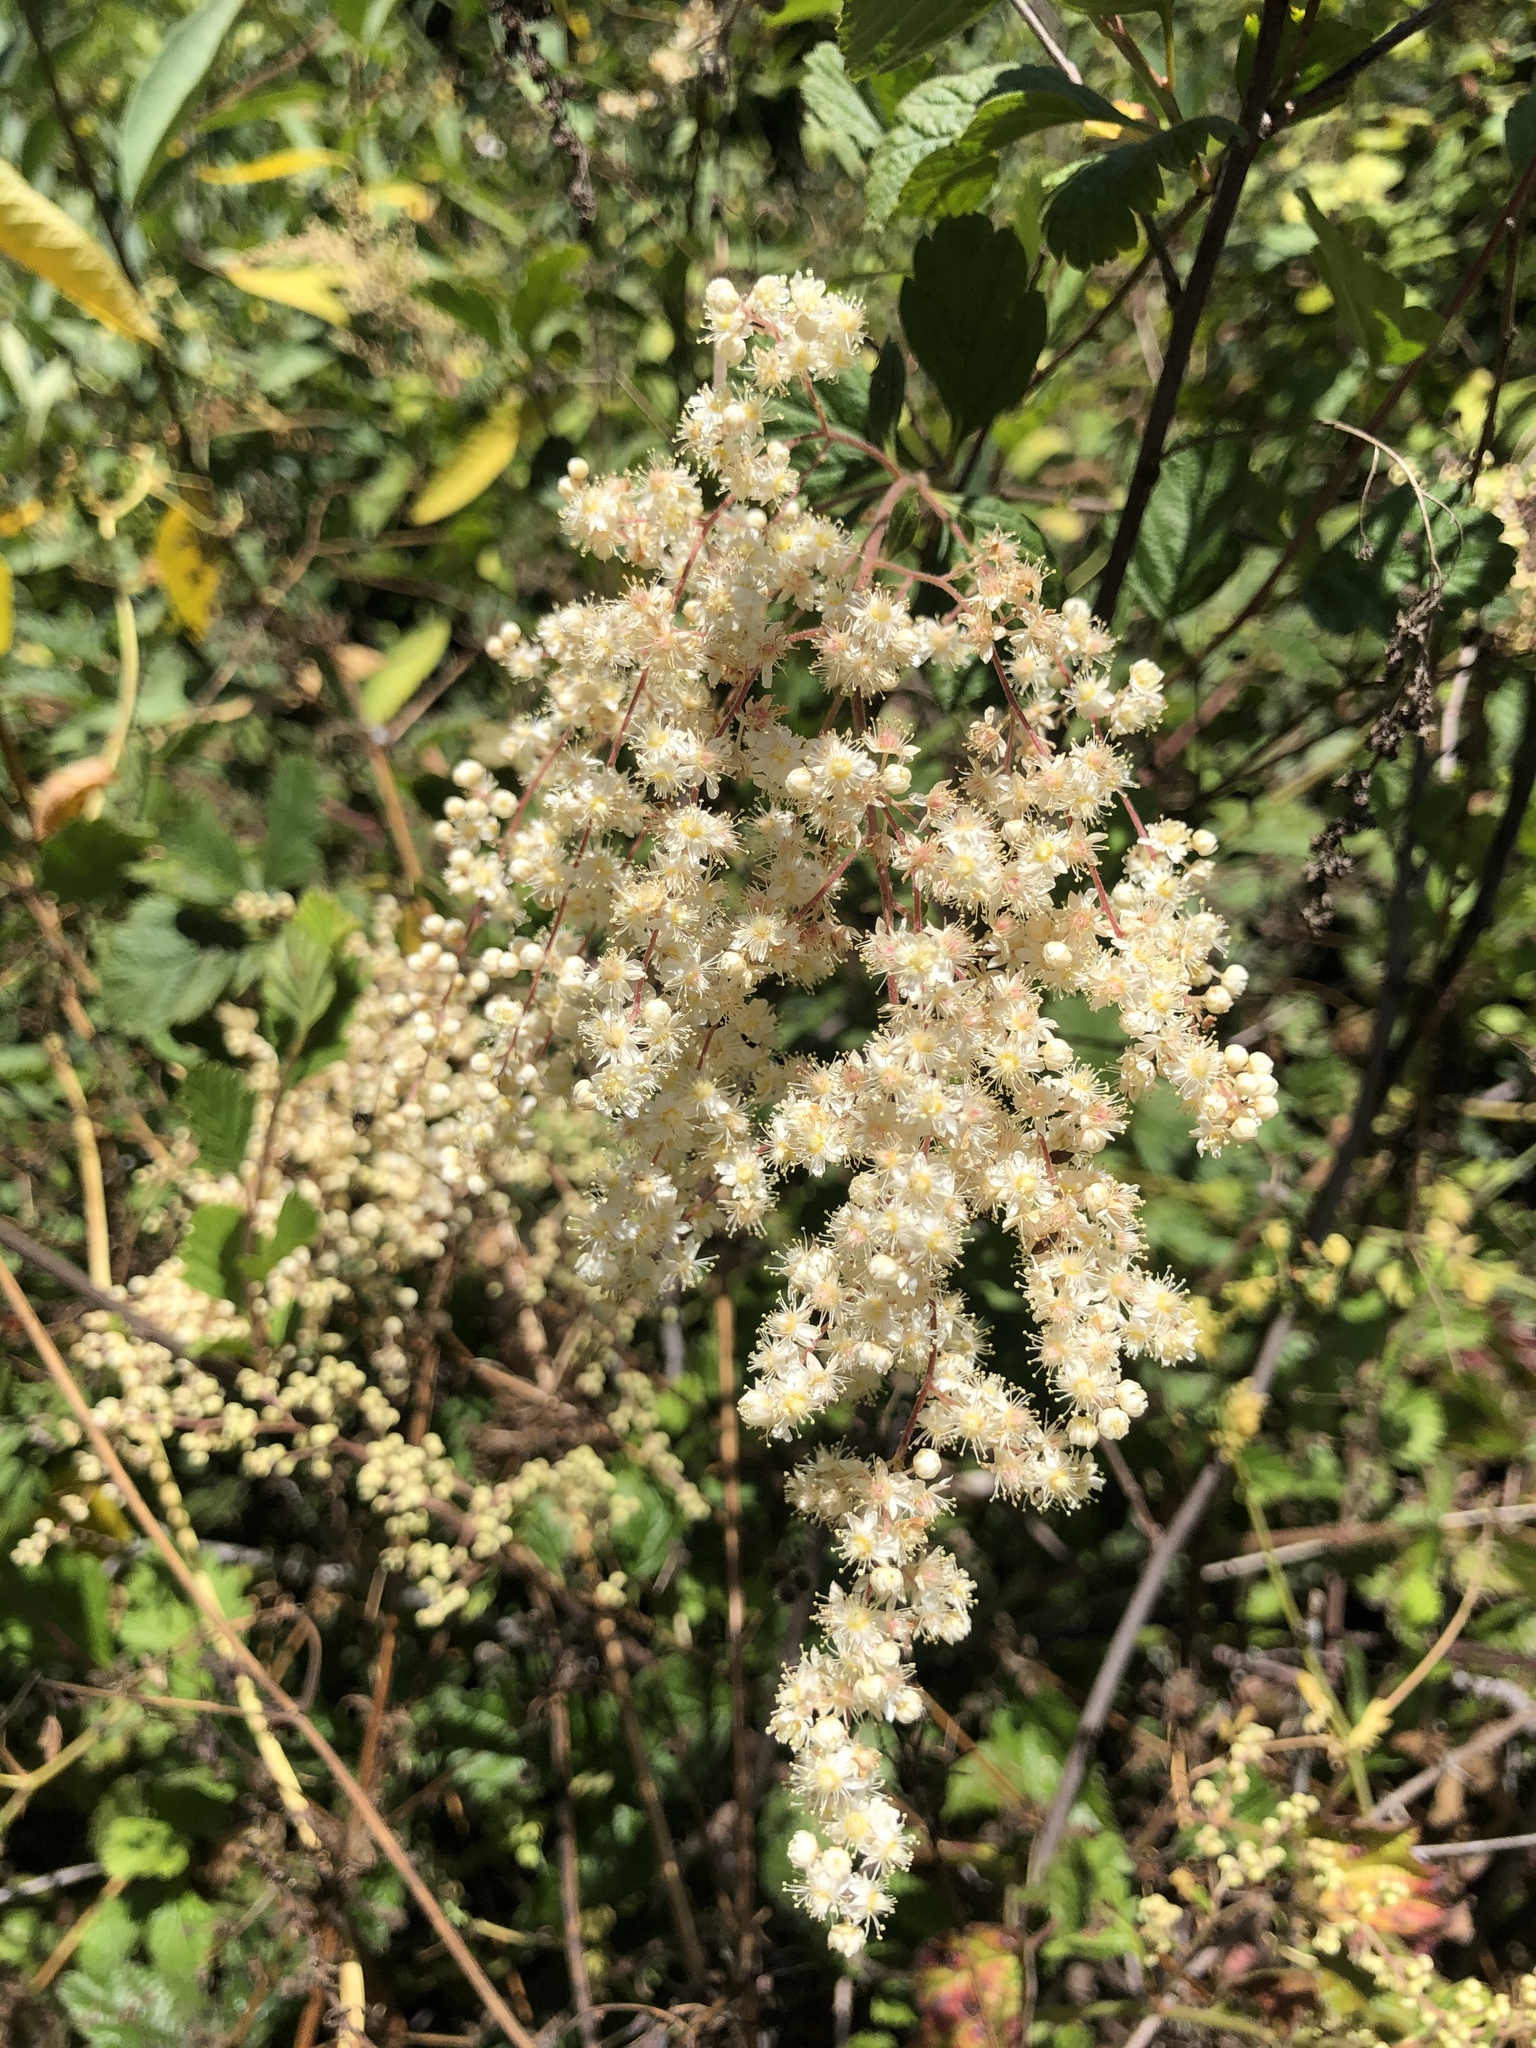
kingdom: Plantae
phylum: Tracheophyta
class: Magnoliopsida
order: Rosales
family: Rosaceae
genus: Holodiscus
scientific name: Holodiscus discolor
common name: Oceanspray
